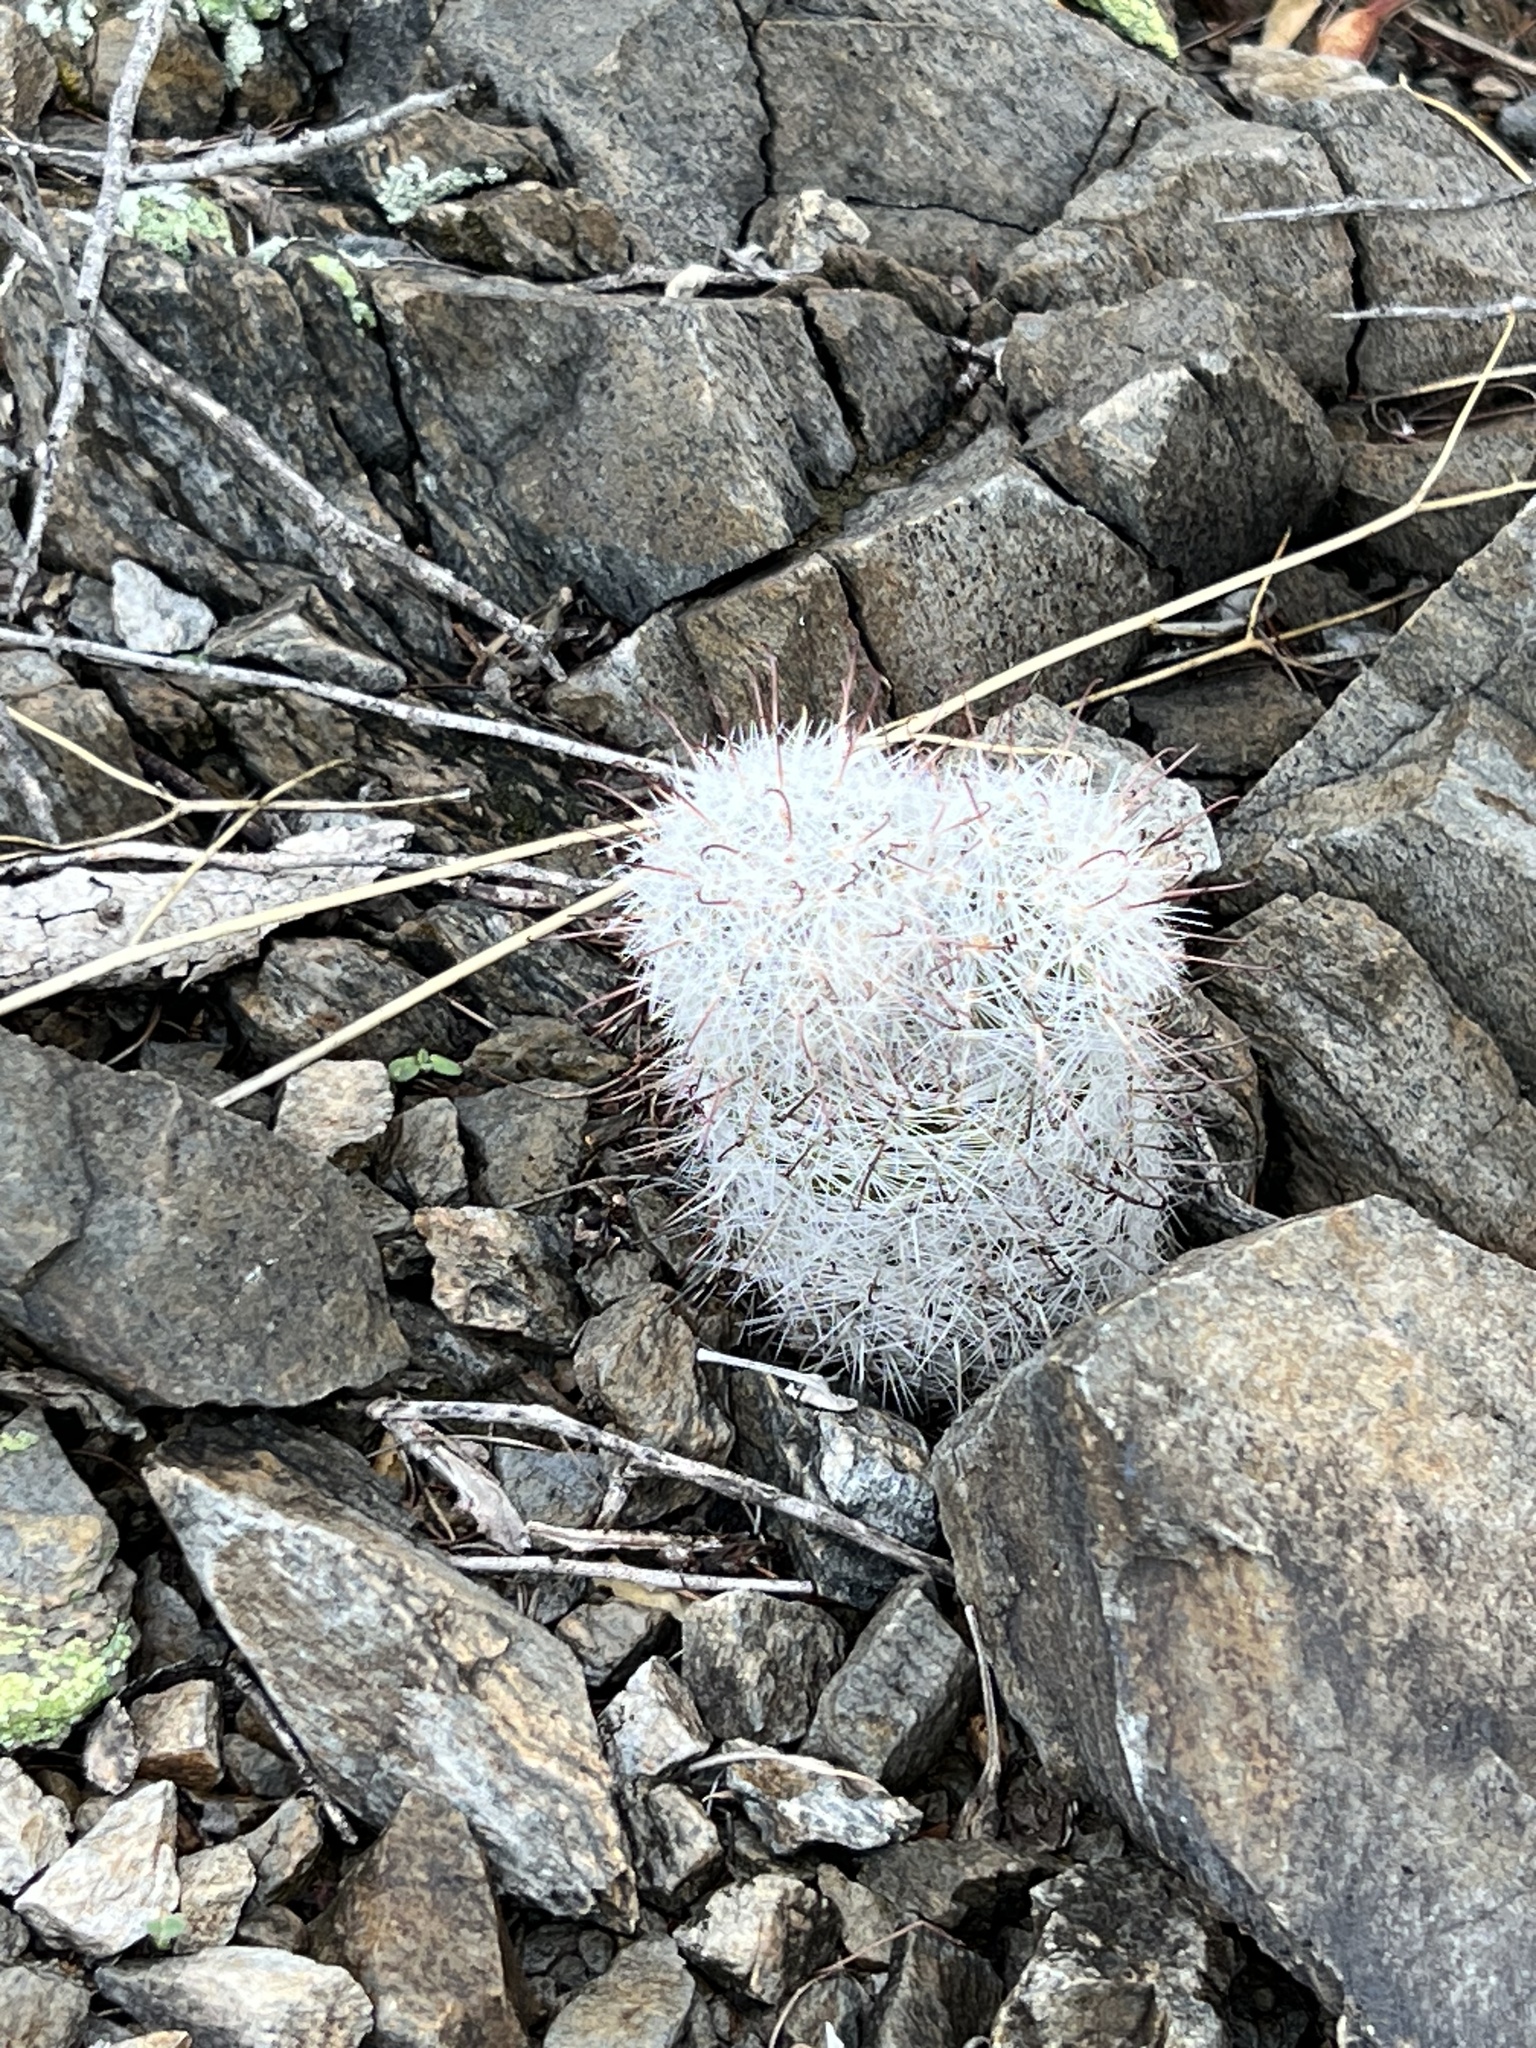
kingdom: Plantae
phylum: Tracheophyta
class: Magnoliopsida
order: Caryophyllales
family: Cactaceae
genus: Cochemiea
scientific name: Cochemiea grahamii
